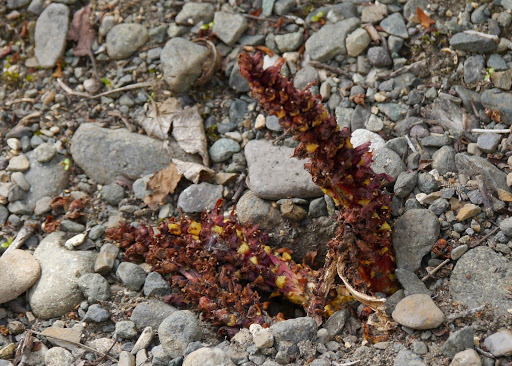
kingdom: Plantae
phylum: Tracheophyta
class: Magnoliopsida
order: Lamiales
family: Orobanchaceae
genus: Boschniakia
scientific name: Boschniakia rossica
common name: Poque
